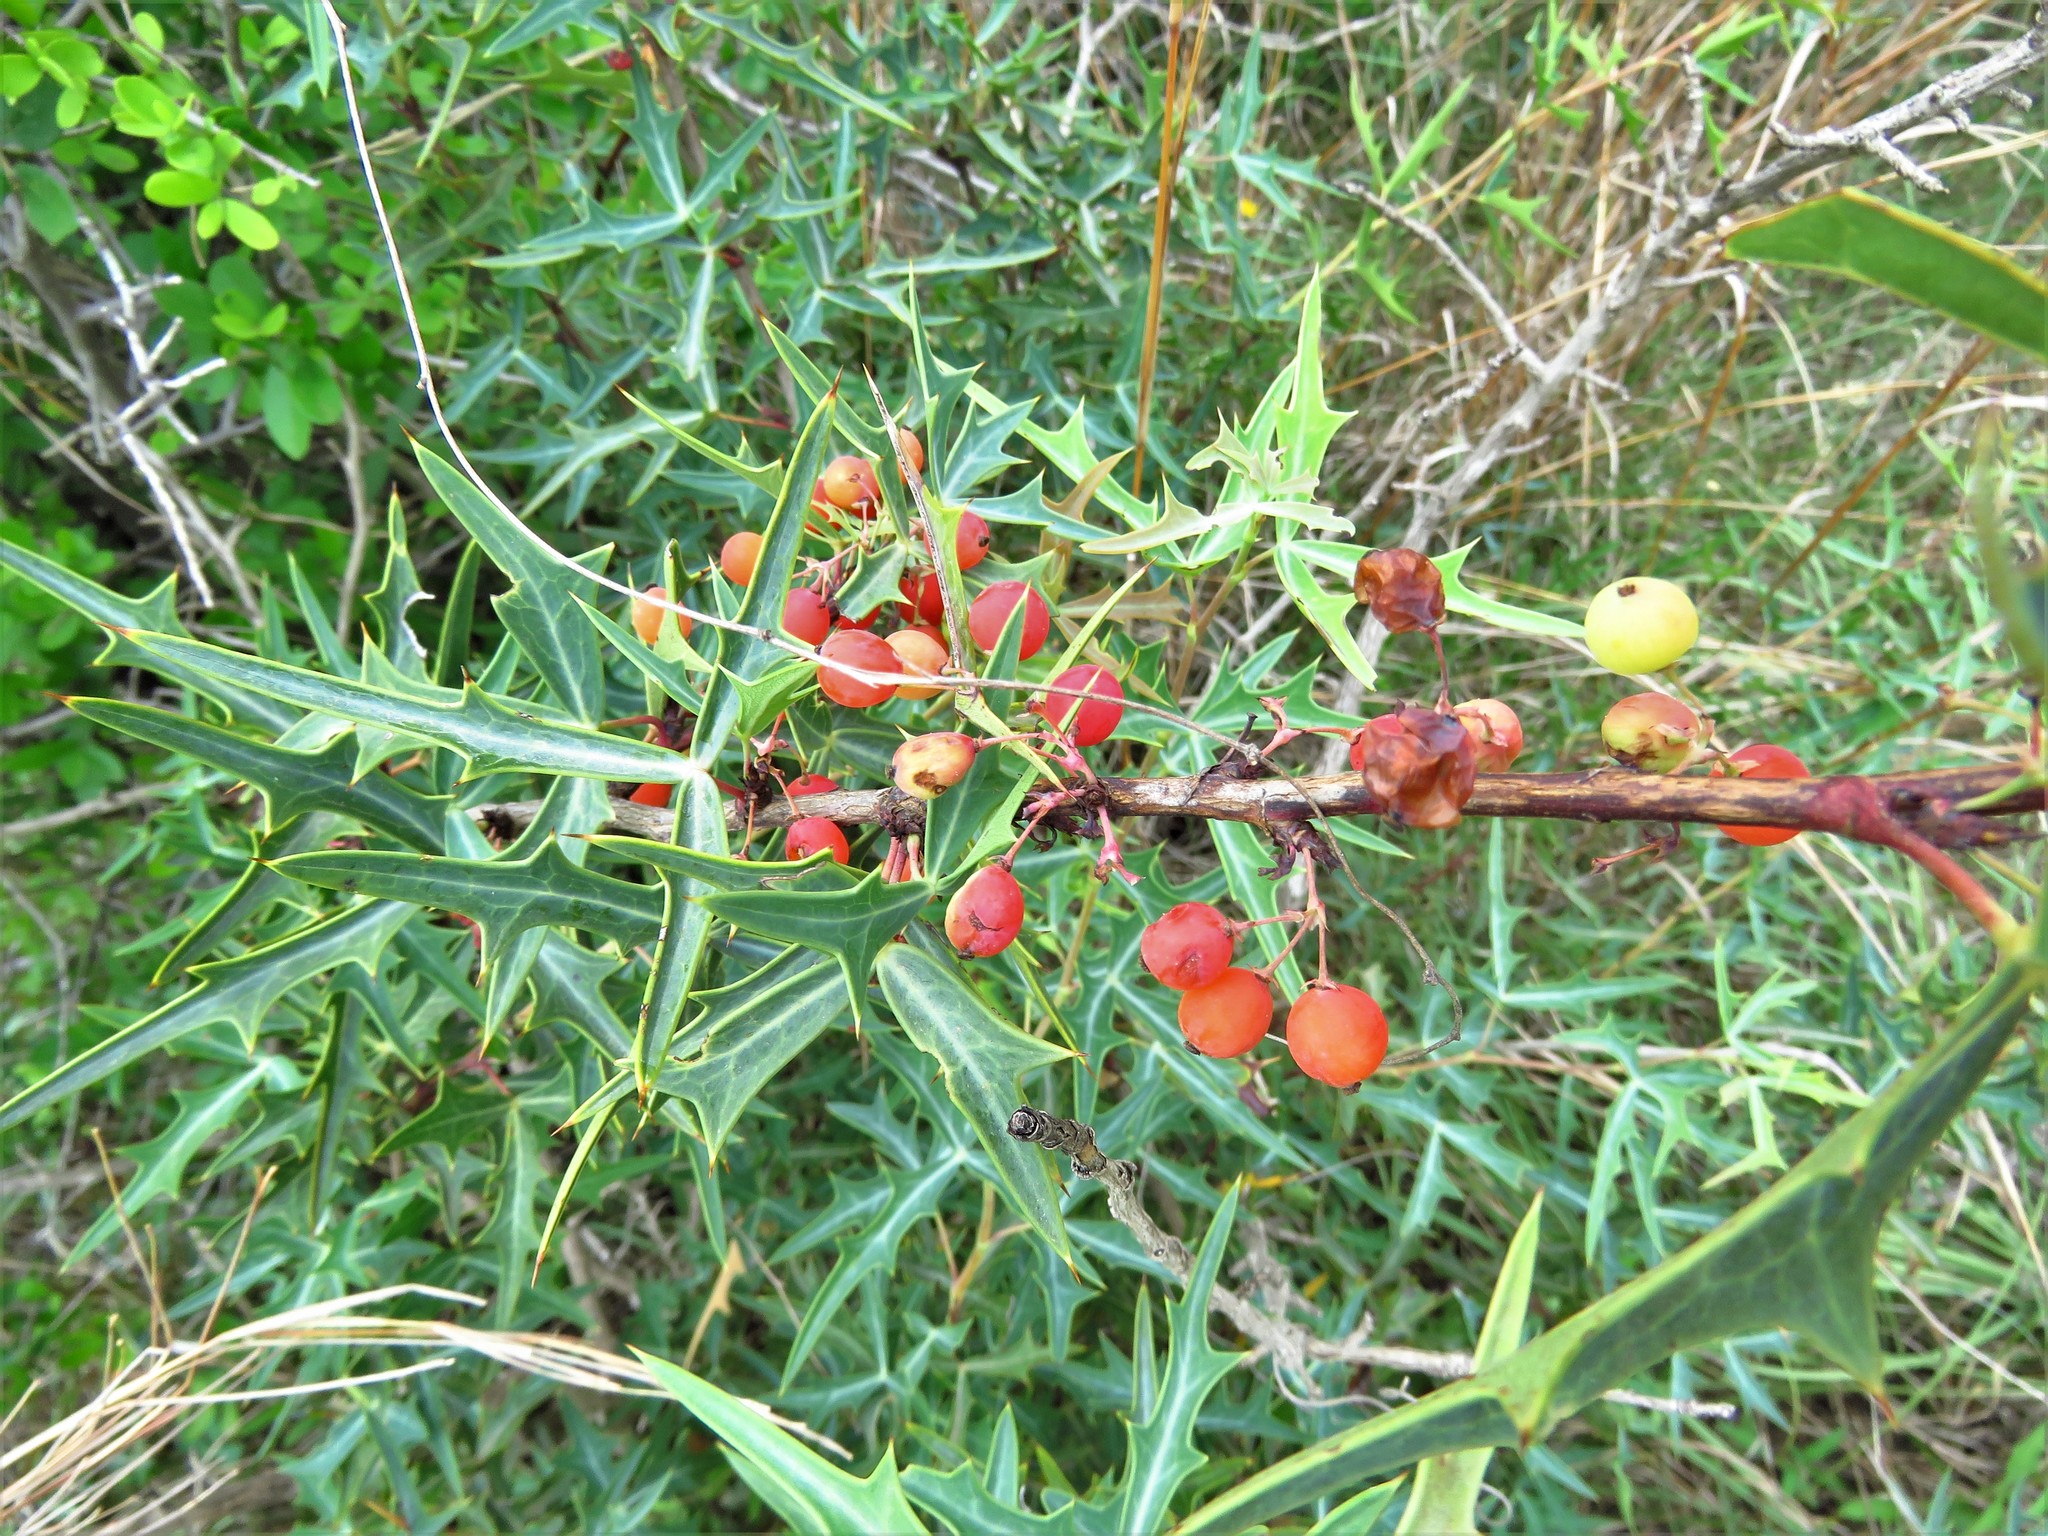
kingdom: Plantae
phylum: Tracheophyta
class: Magnoliopsida
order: Ranunculales
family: Berberidaceae
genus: Alloberberis
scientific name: Alloberberis trifoliolata
